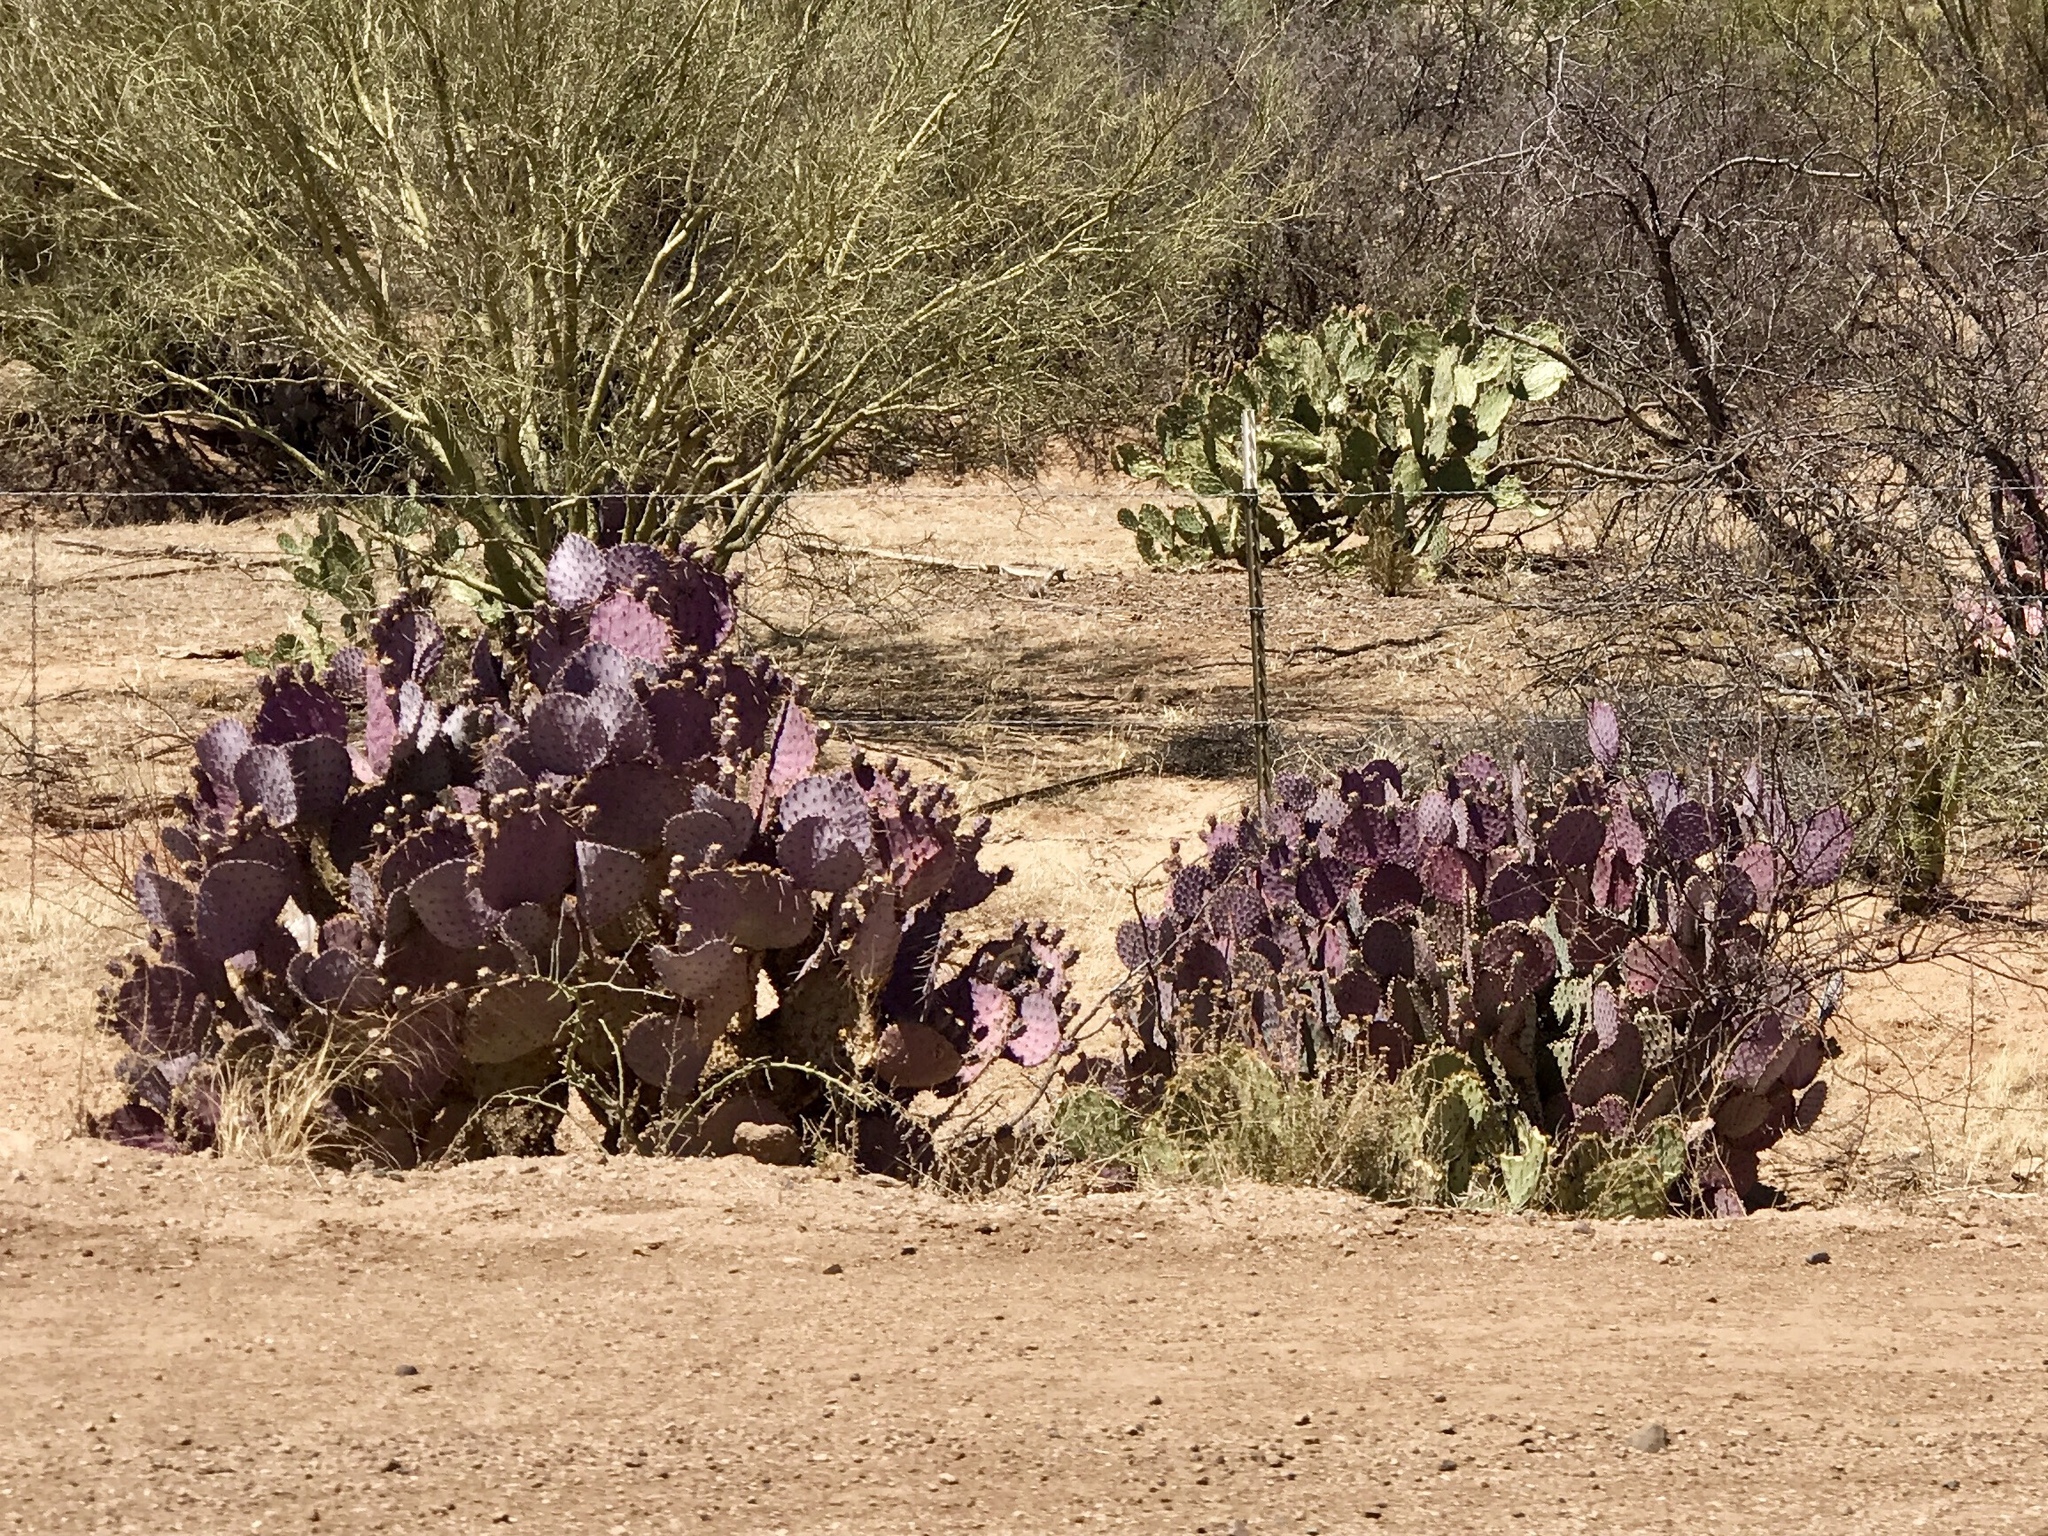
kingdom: Plantae
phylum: Tracheophyta
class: Magnoliopsida
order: Caryophyllales
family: Cactaceae
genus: Opuntia
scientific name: Opuntia gosseliniana
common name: Violet prickly-pear
